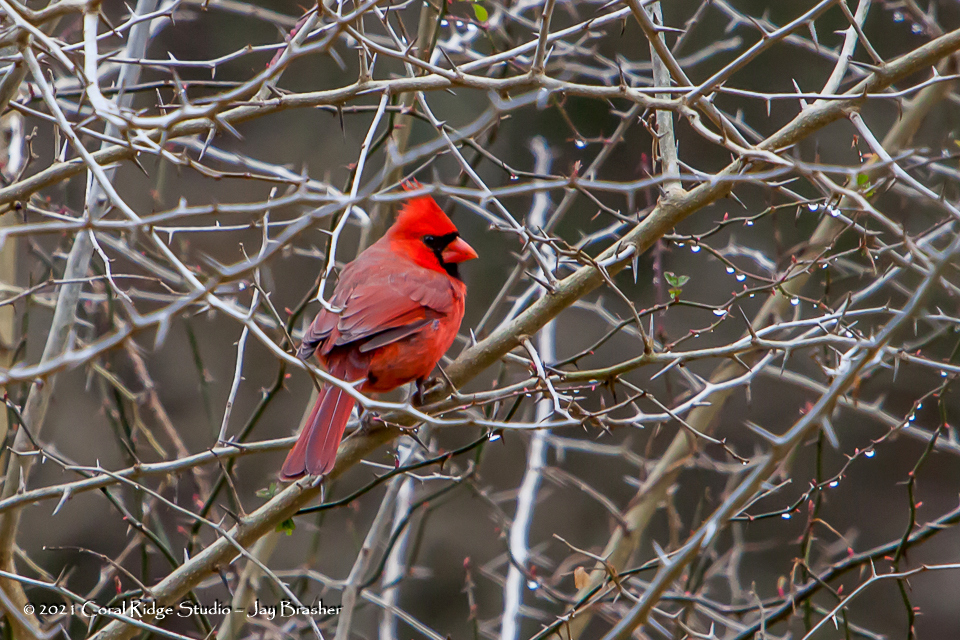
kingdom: Animalia
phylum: Chordata
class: Aves
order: Passeriformes
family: Cardinalidae
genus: Cardinalis
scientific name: Cardinalis cardinalis
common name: Northern cardinal
